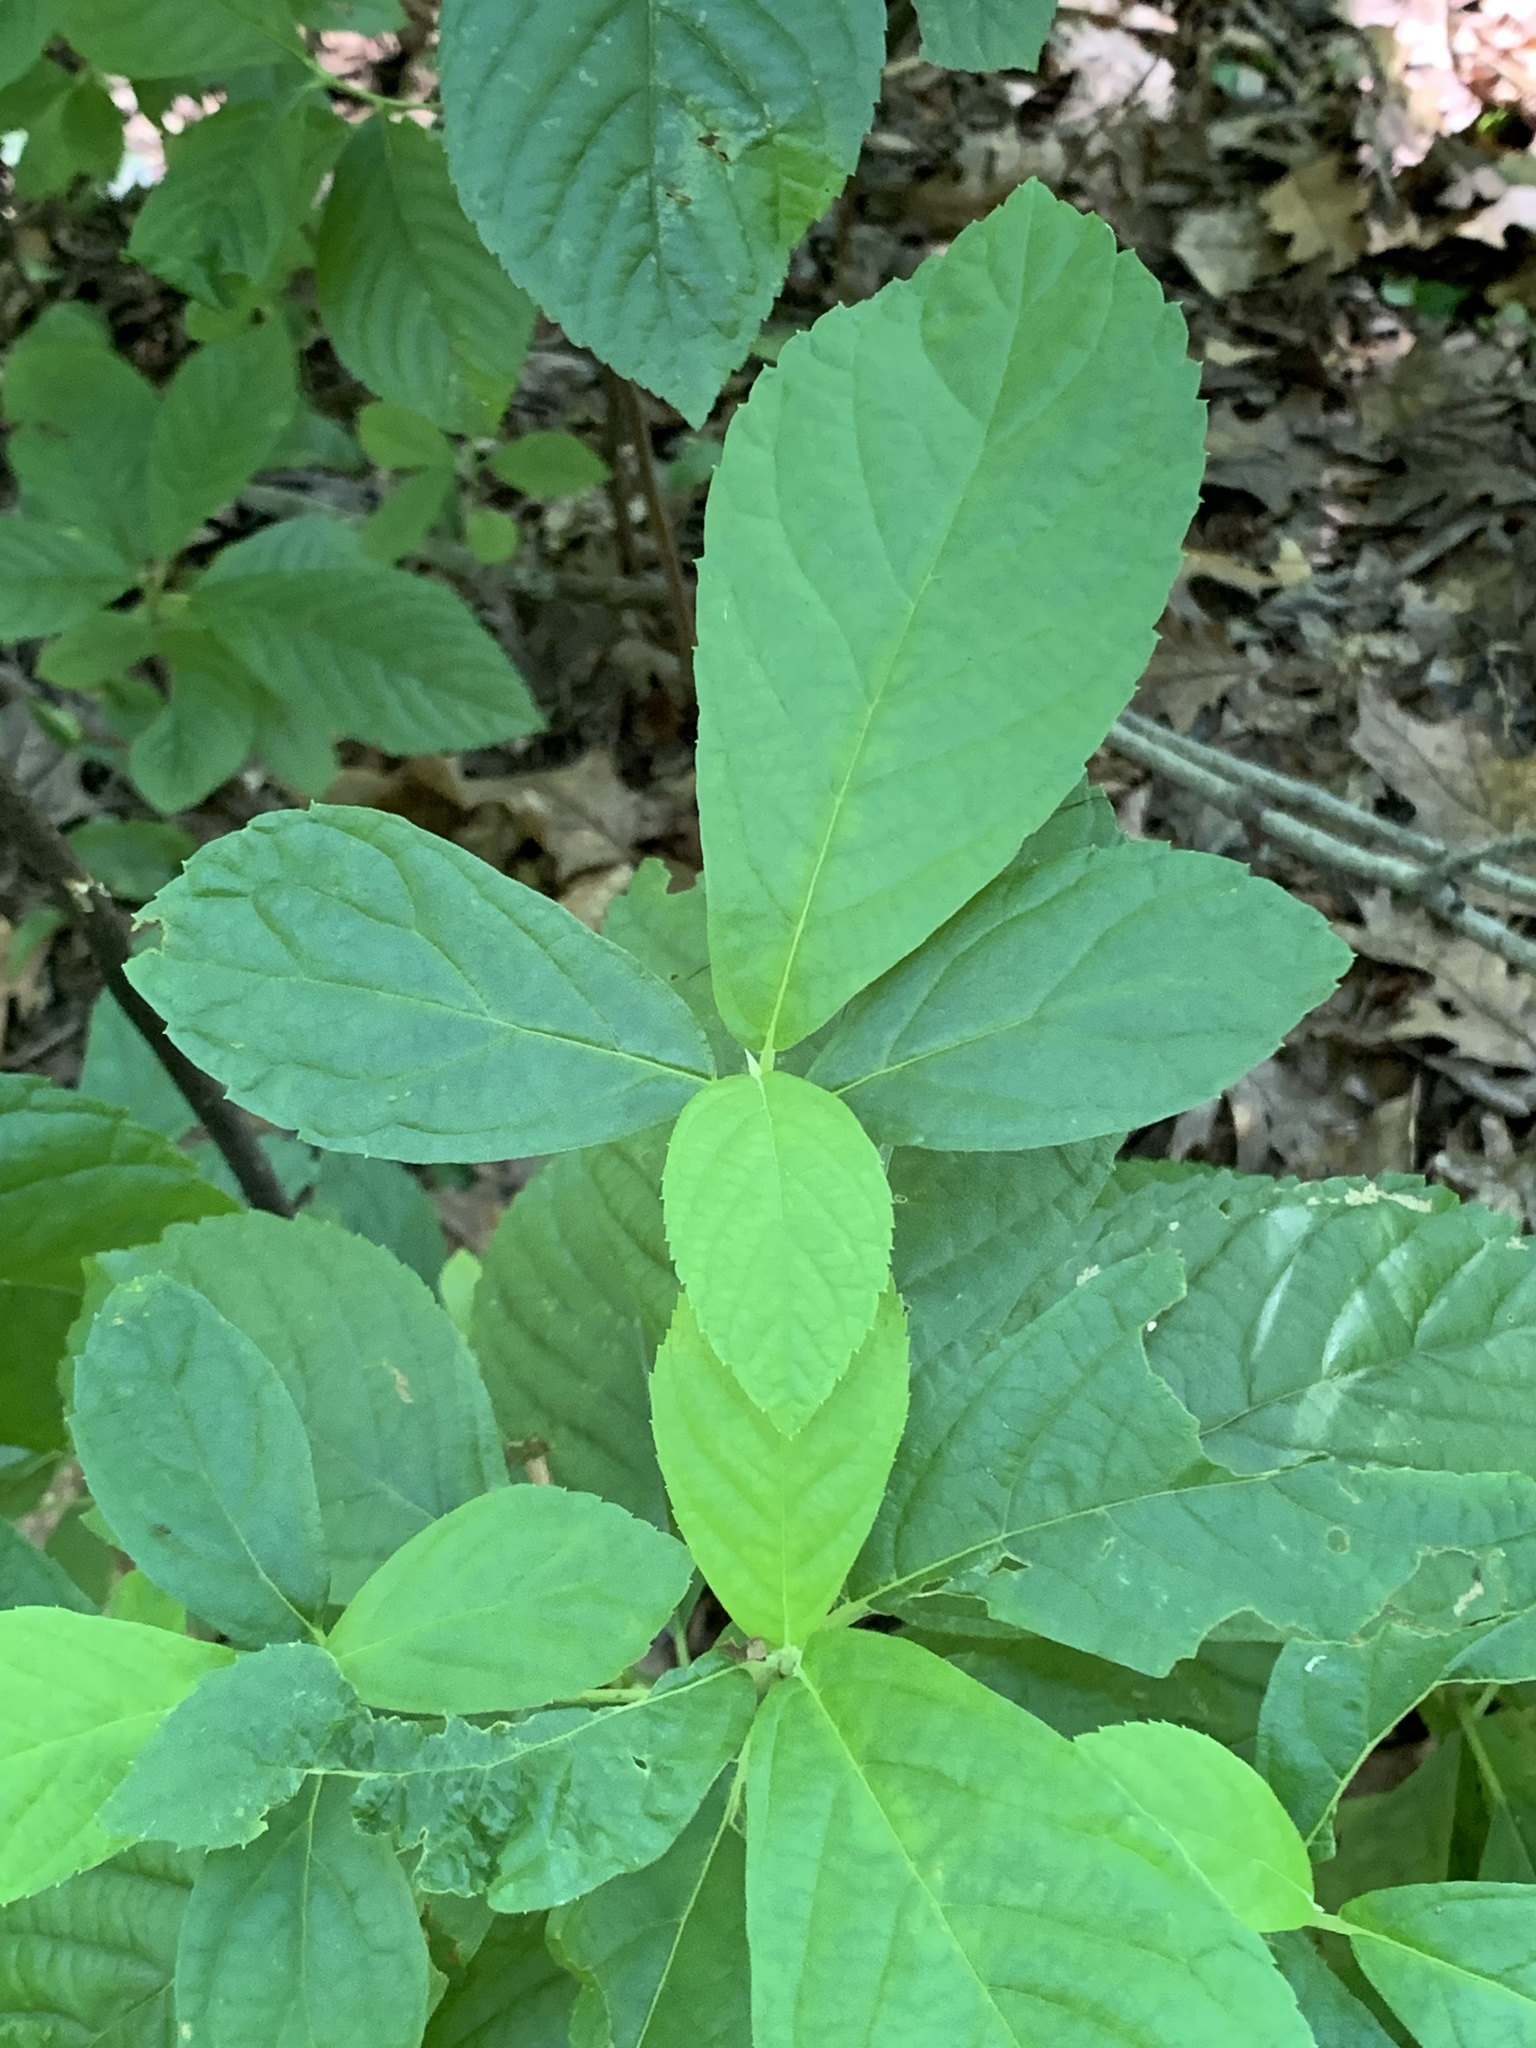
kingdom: Plantae
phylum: Tracheophyta
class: Magnoliopsida
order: Ericales
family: Clethraceae
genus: Clethra
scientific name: Clethra alnifolia
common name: Sweet pepperbush
